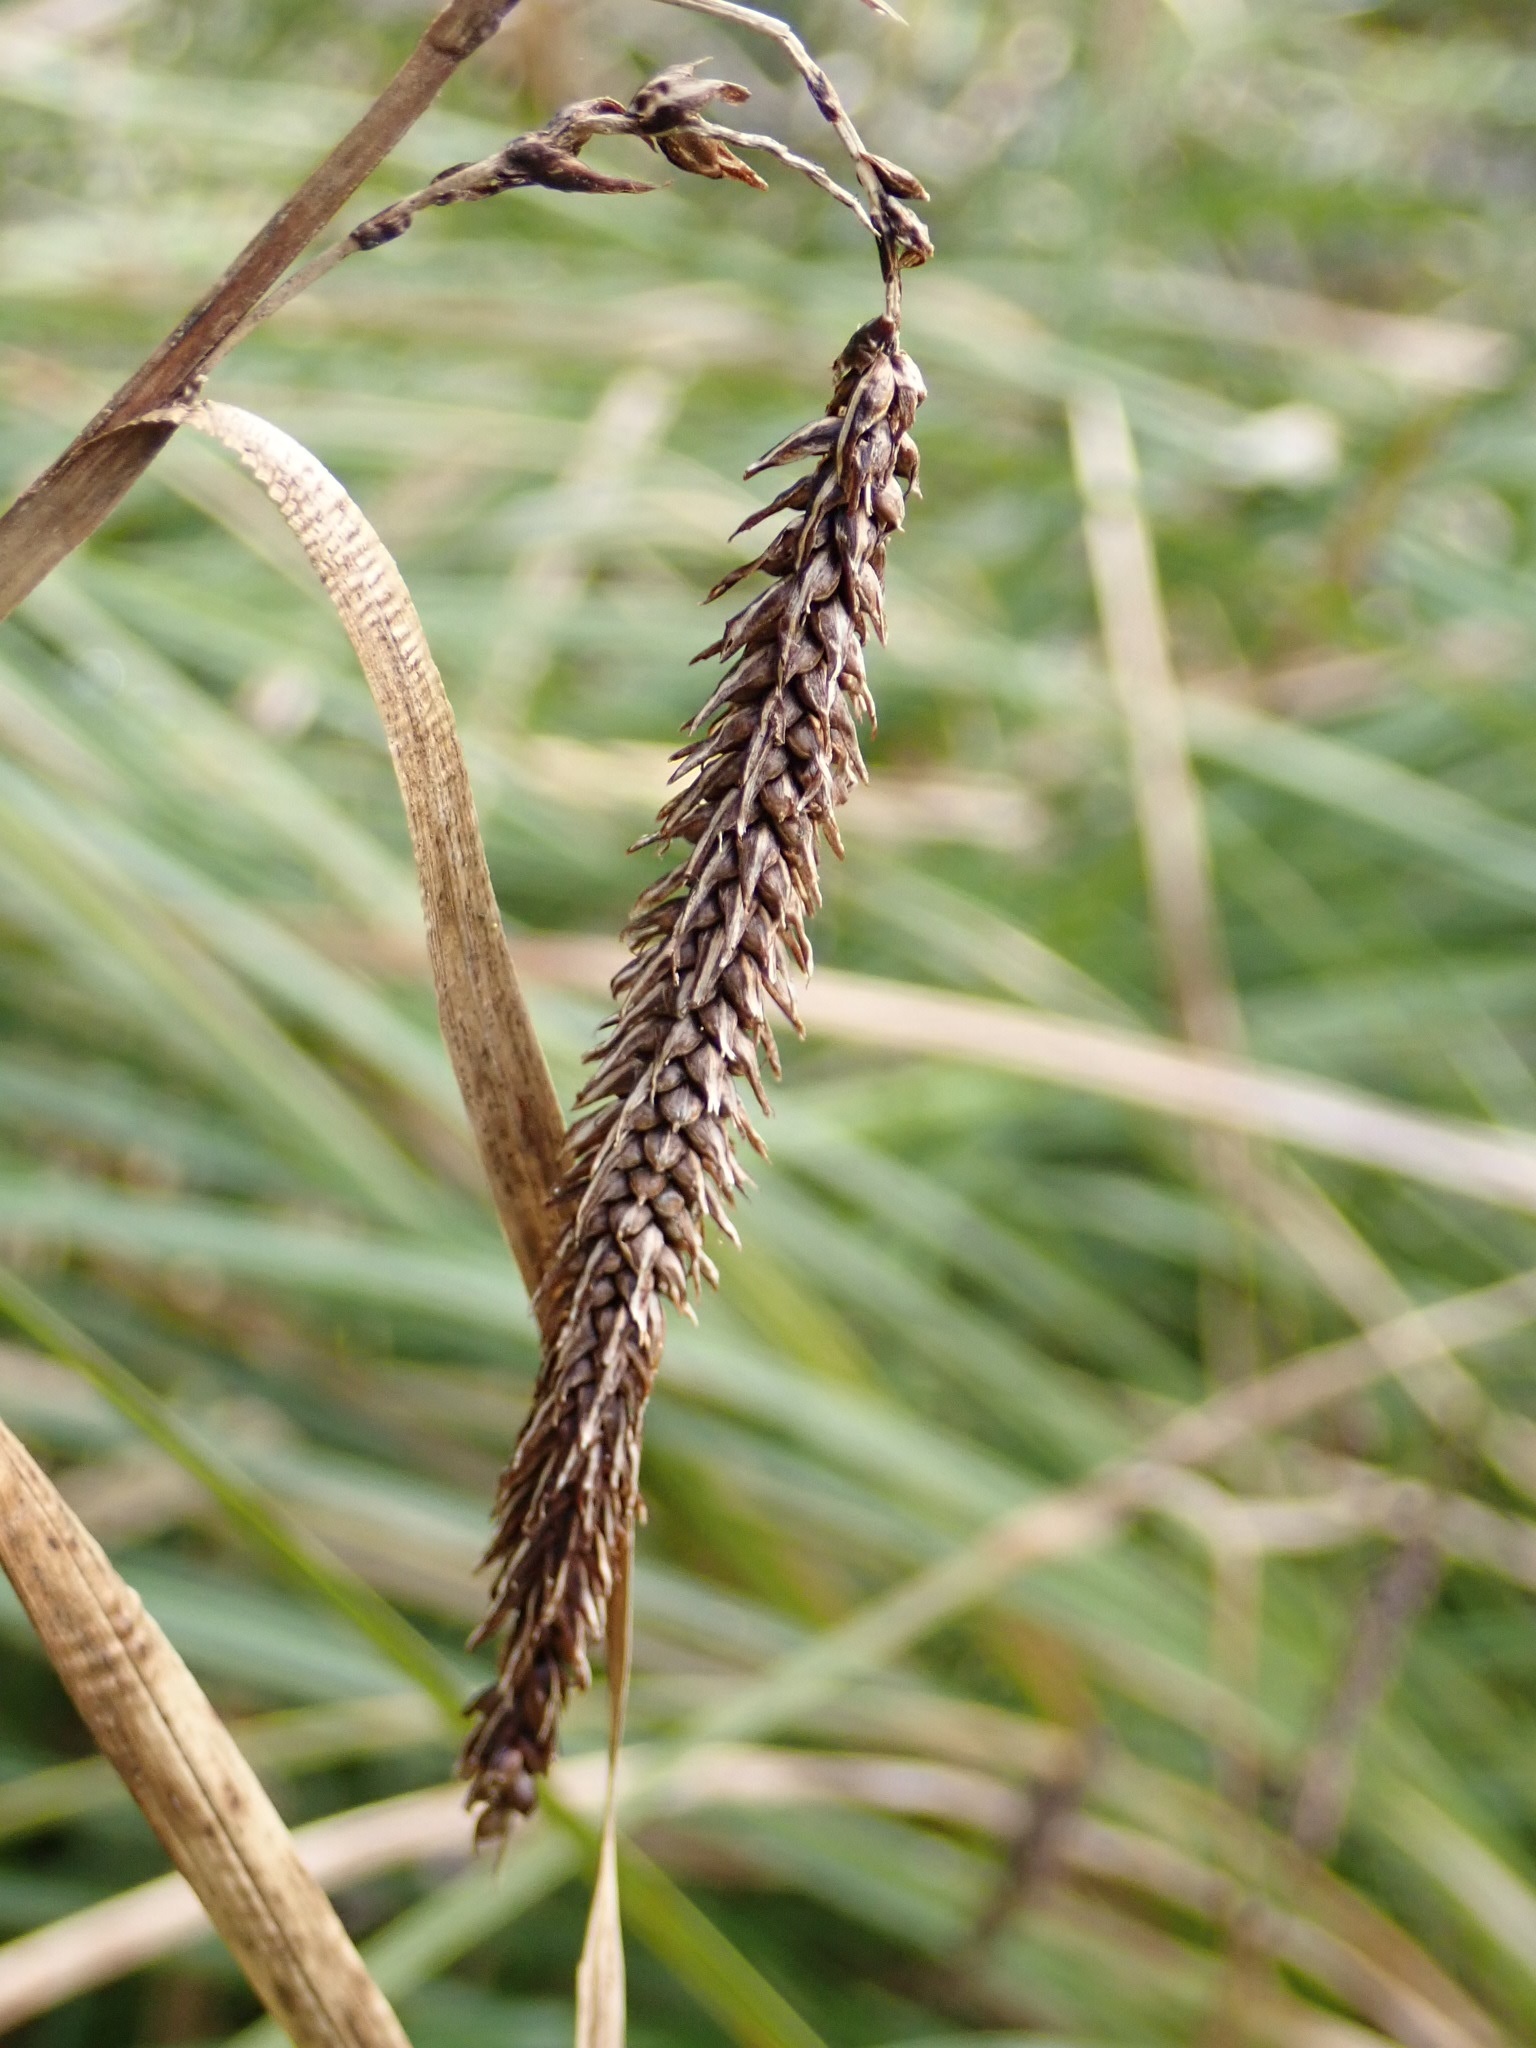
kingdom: Plantae
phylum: Tracheophyta
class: Liliopsida
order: Poales
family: Cyperaceae
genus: Carex
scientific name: Carex obnupta
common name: Slough sedge
